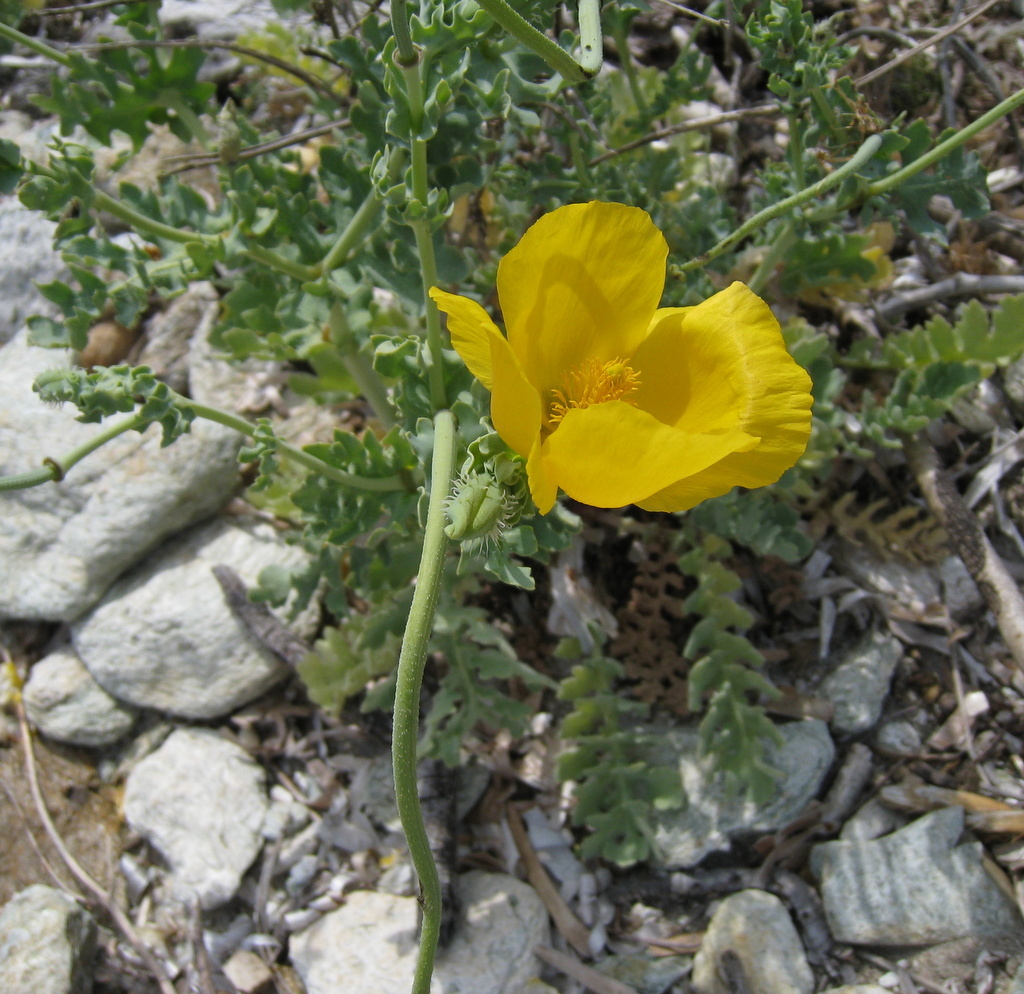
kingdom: Plantae
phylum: Tracheophyta
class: Magnoliopsida
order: Ranunculales
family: Papaveraceae
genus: Glaucium
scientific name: Glaucium flavum
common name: Yellow horned-poppy
